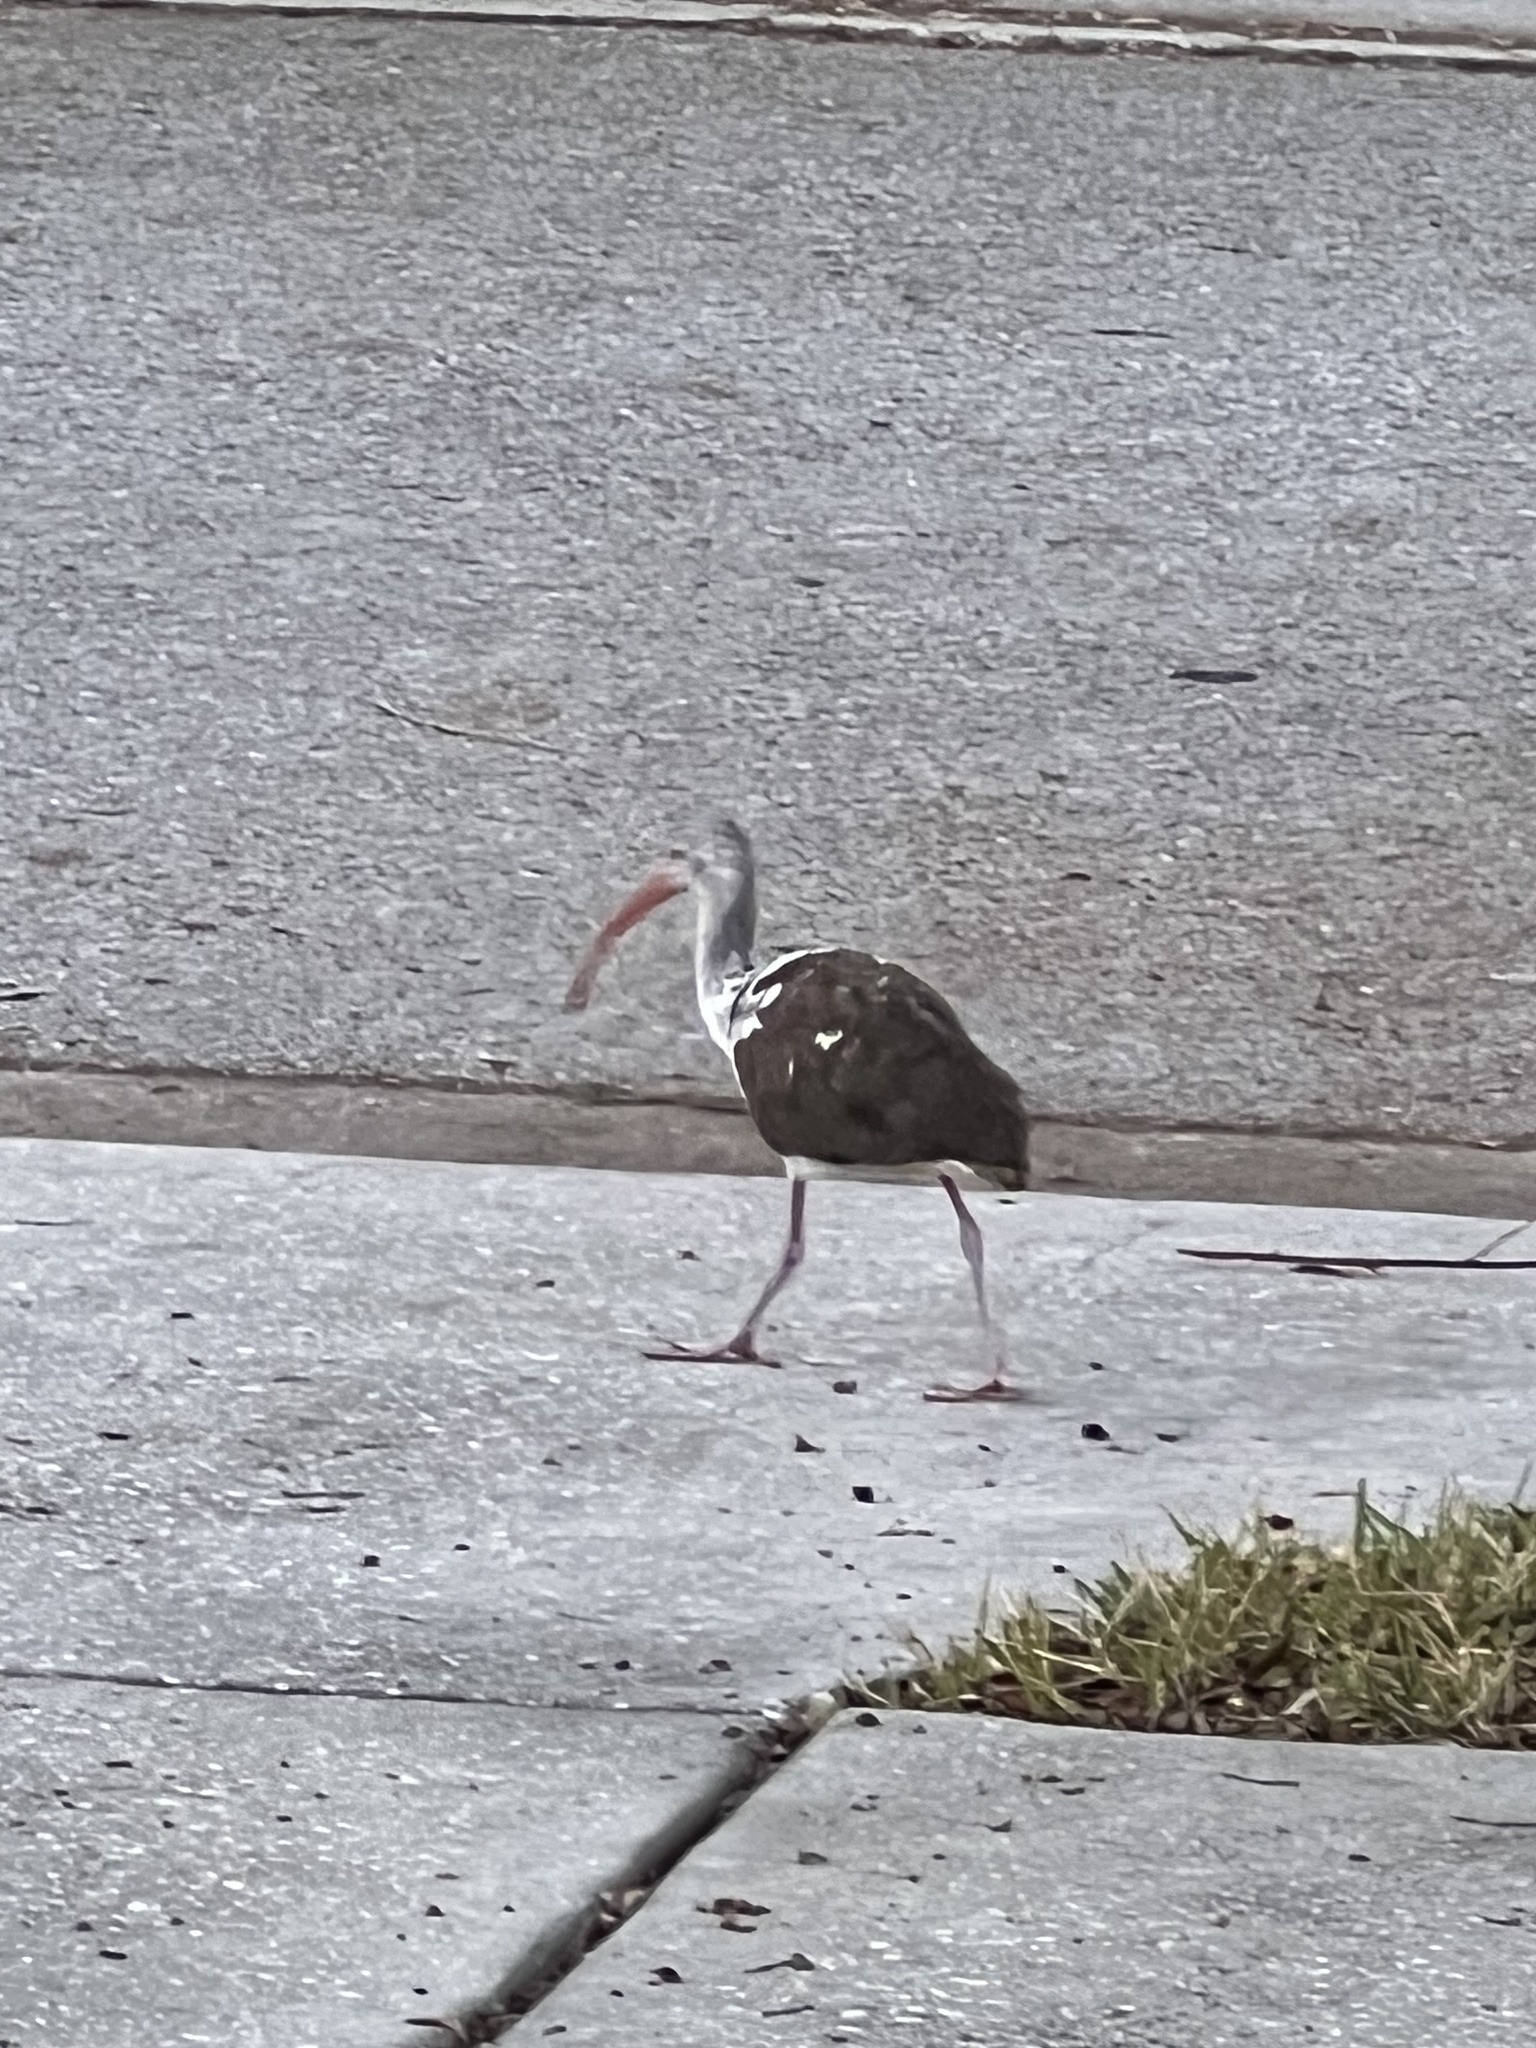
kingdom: Animalia
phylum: Chordata
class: Aves
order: Pelecaniformes
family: Threskiornithidae
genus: Eudocimus
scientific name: Eudocimus albus
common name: White ibis
